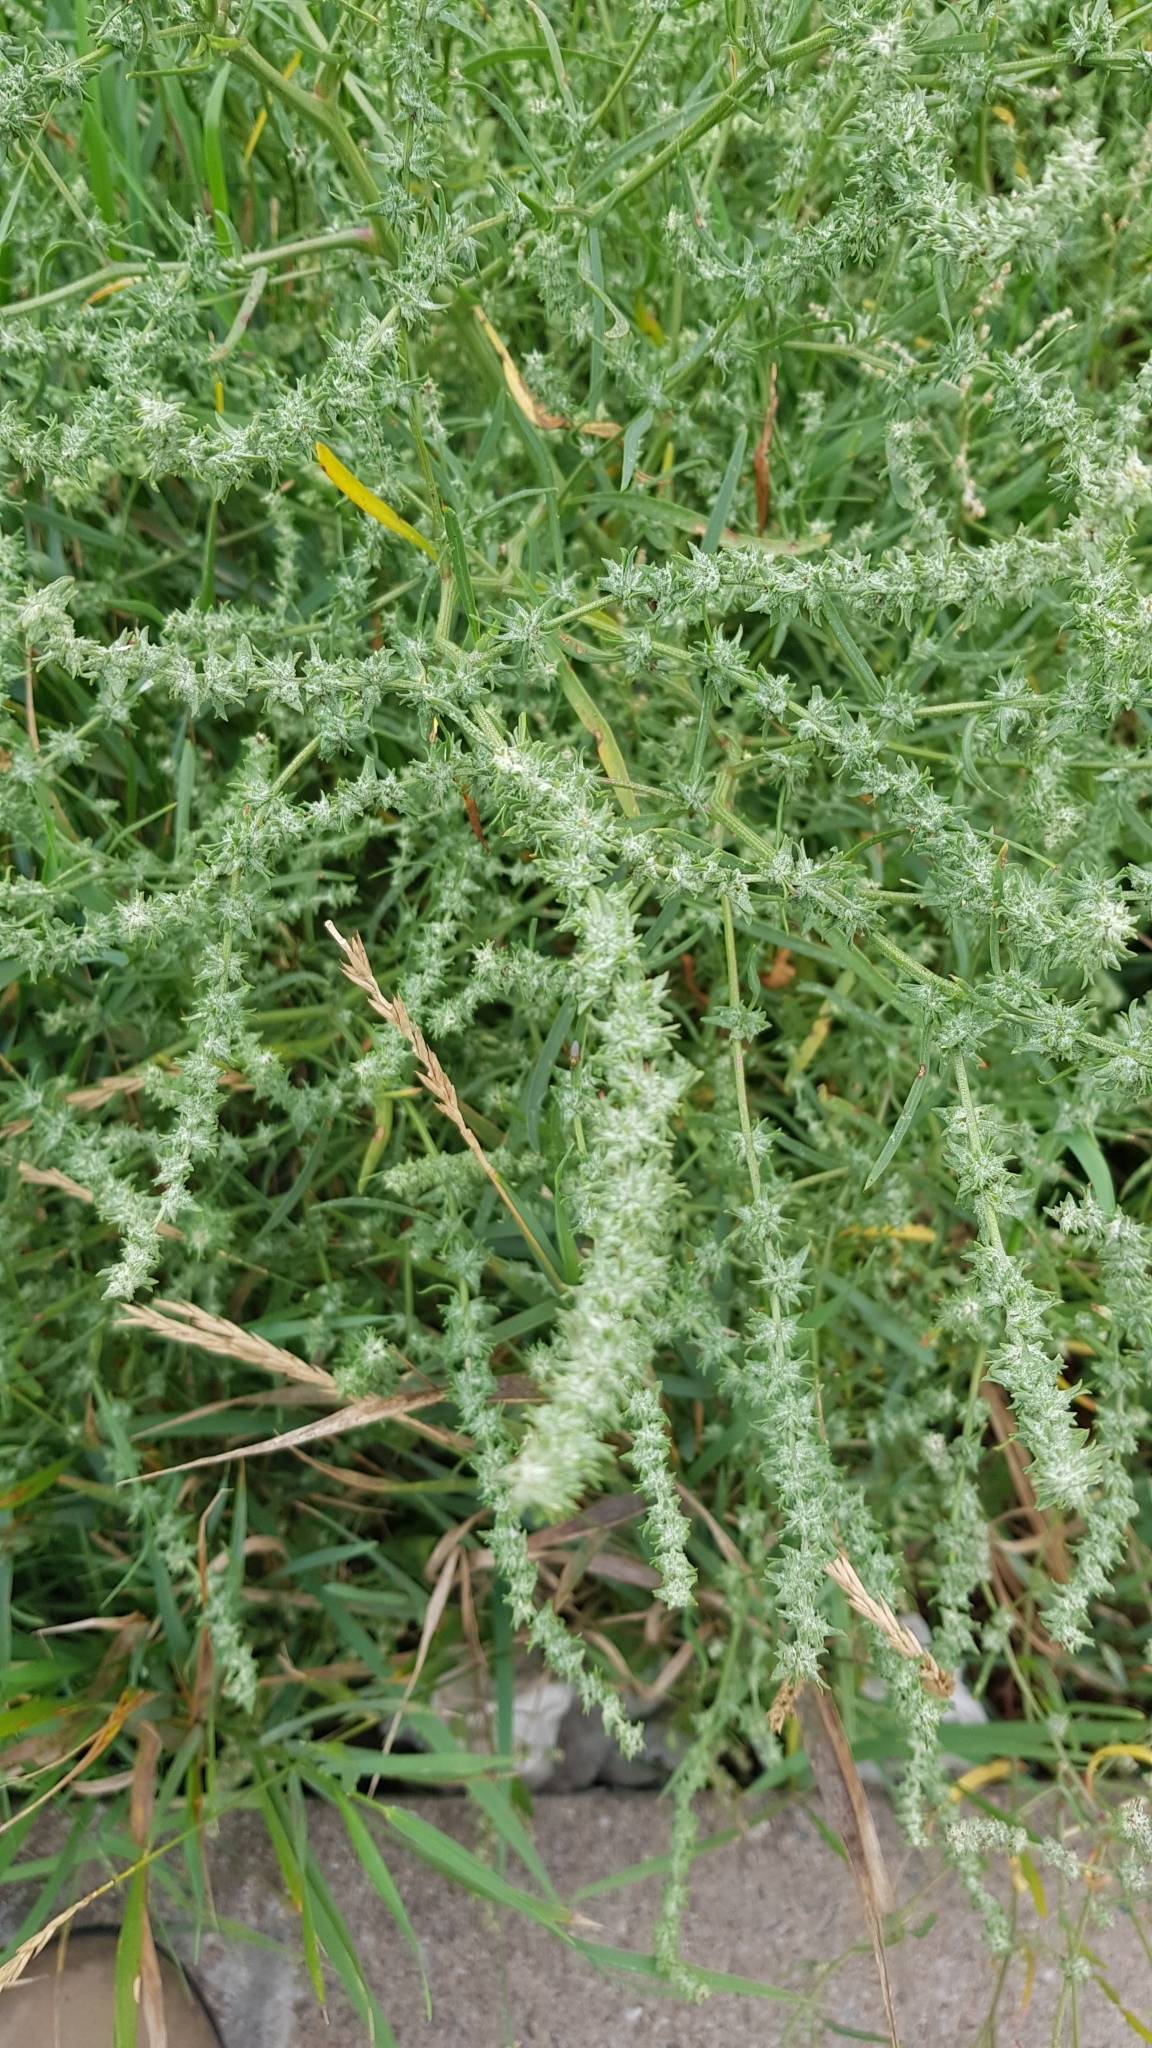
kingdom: Plantae
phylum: Tracheophyta
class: Magnoliopsida
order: Caryophyllales
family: Amaranthaceae
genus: Atriplex
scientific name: Atriplex littoralis
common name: Grass-leaved orache
